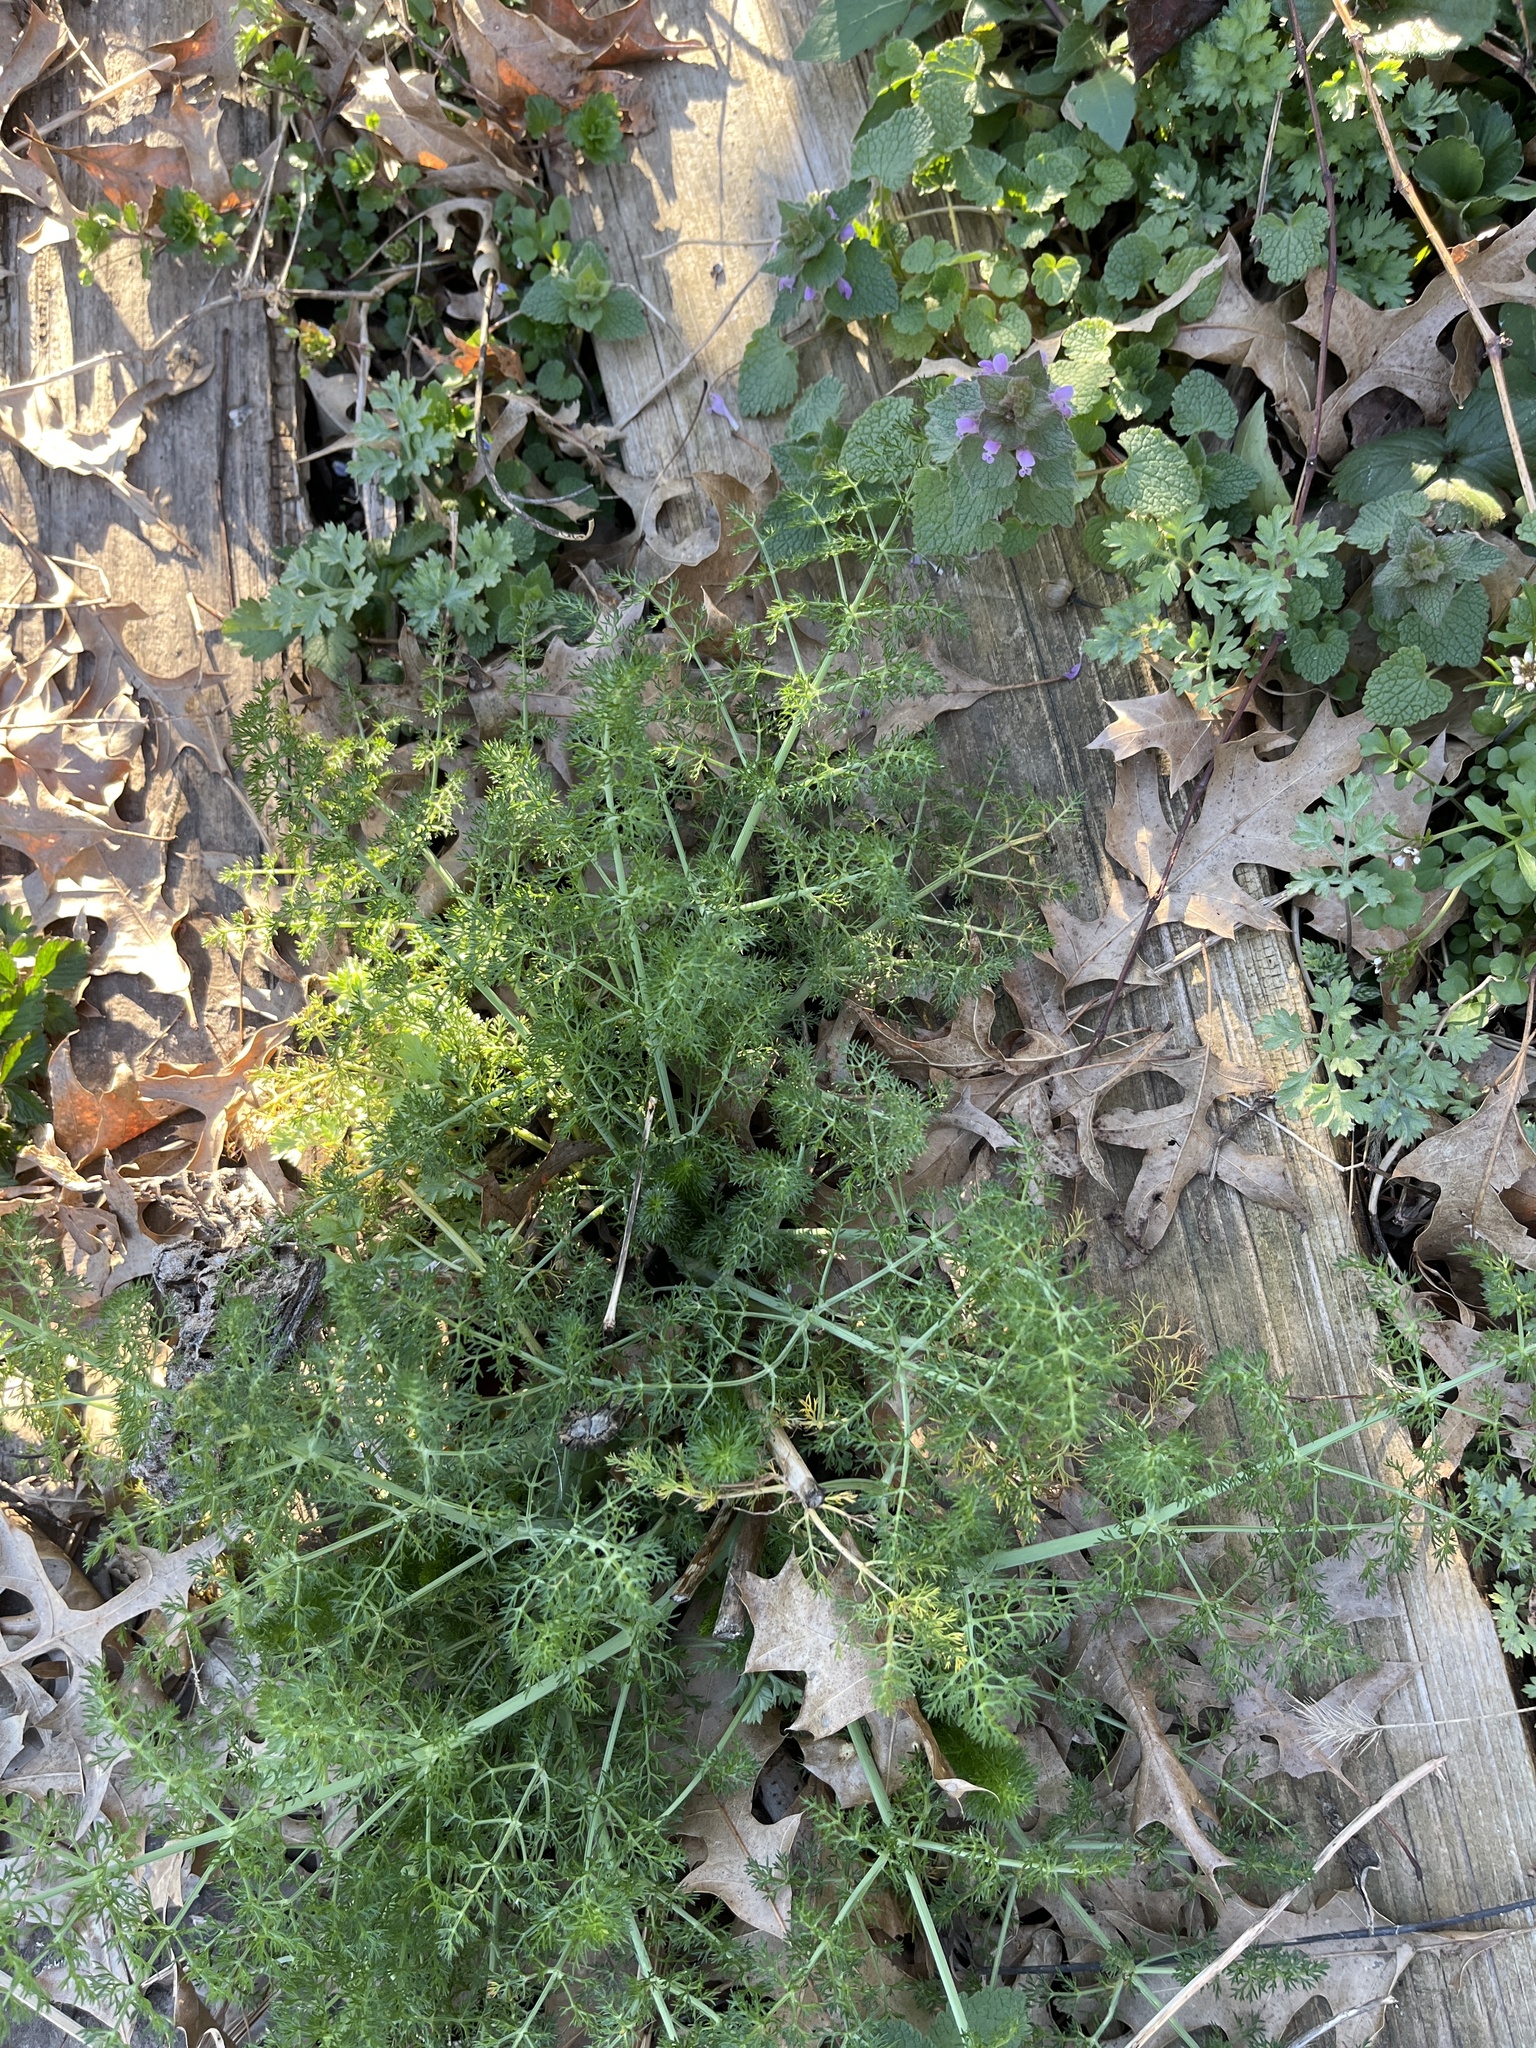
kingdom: Plantae
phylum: Tracheophyta
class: Magnoliopsida
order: Apiales
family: Apiaceae
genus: Foeniculum
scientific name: Foeniculum vulgare
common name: Fennel
